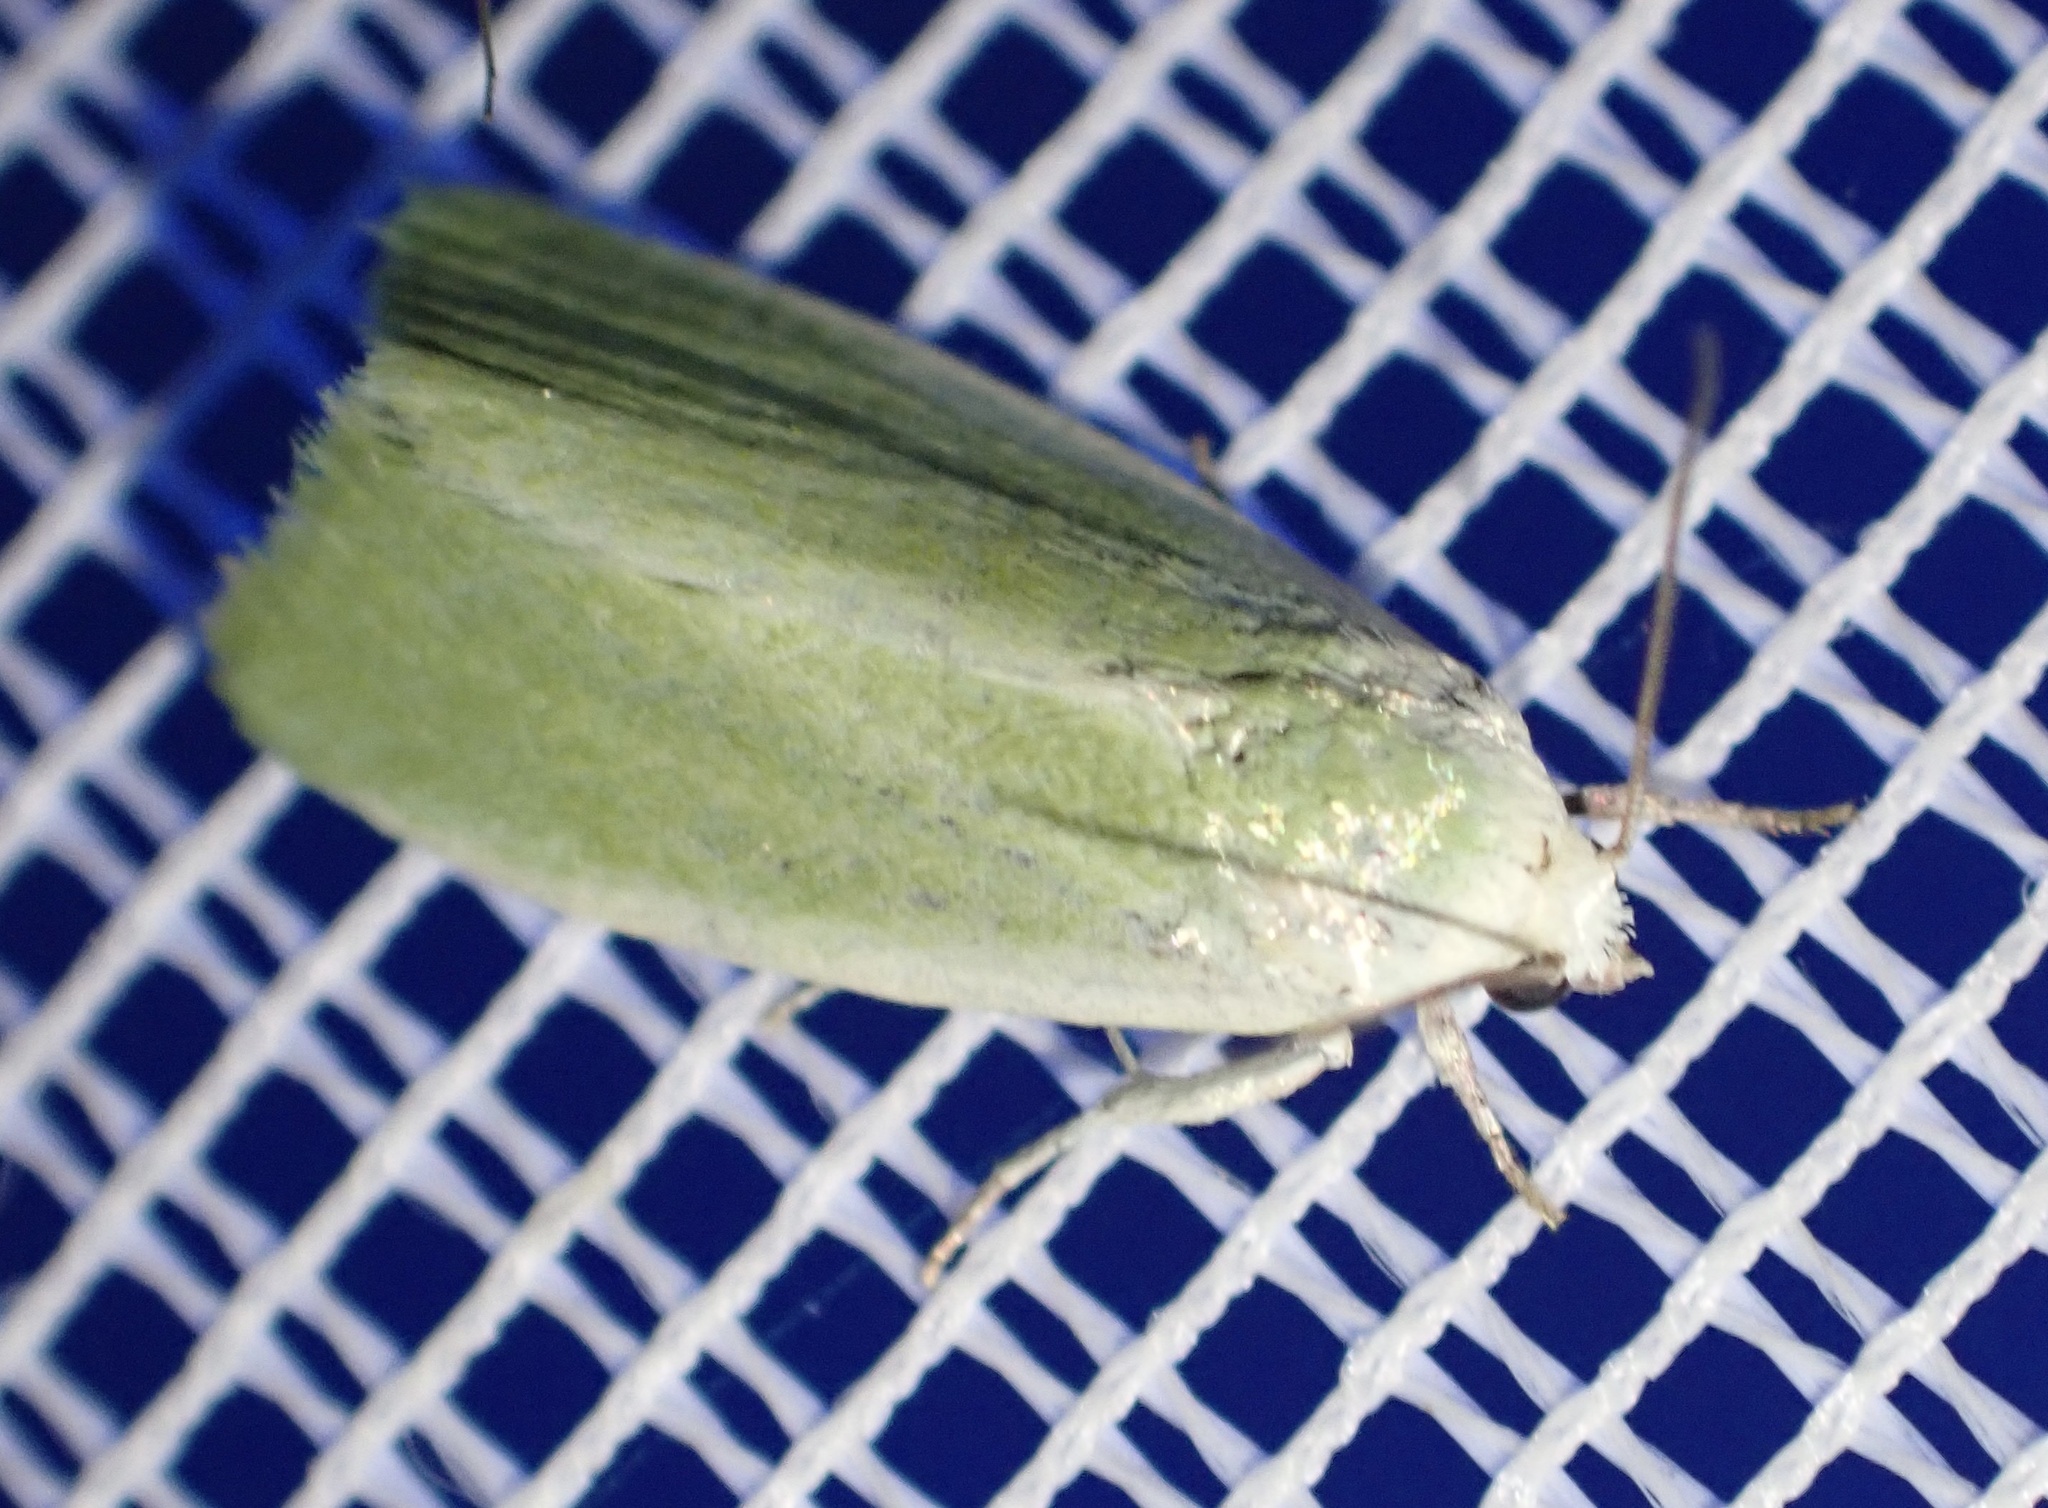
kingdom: Animalia
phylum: Arthropoda
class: Insecta
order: Lepidoptera
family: Nolidae
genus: Earias
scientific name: Earias clorana
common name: Cream-bordered green pea
